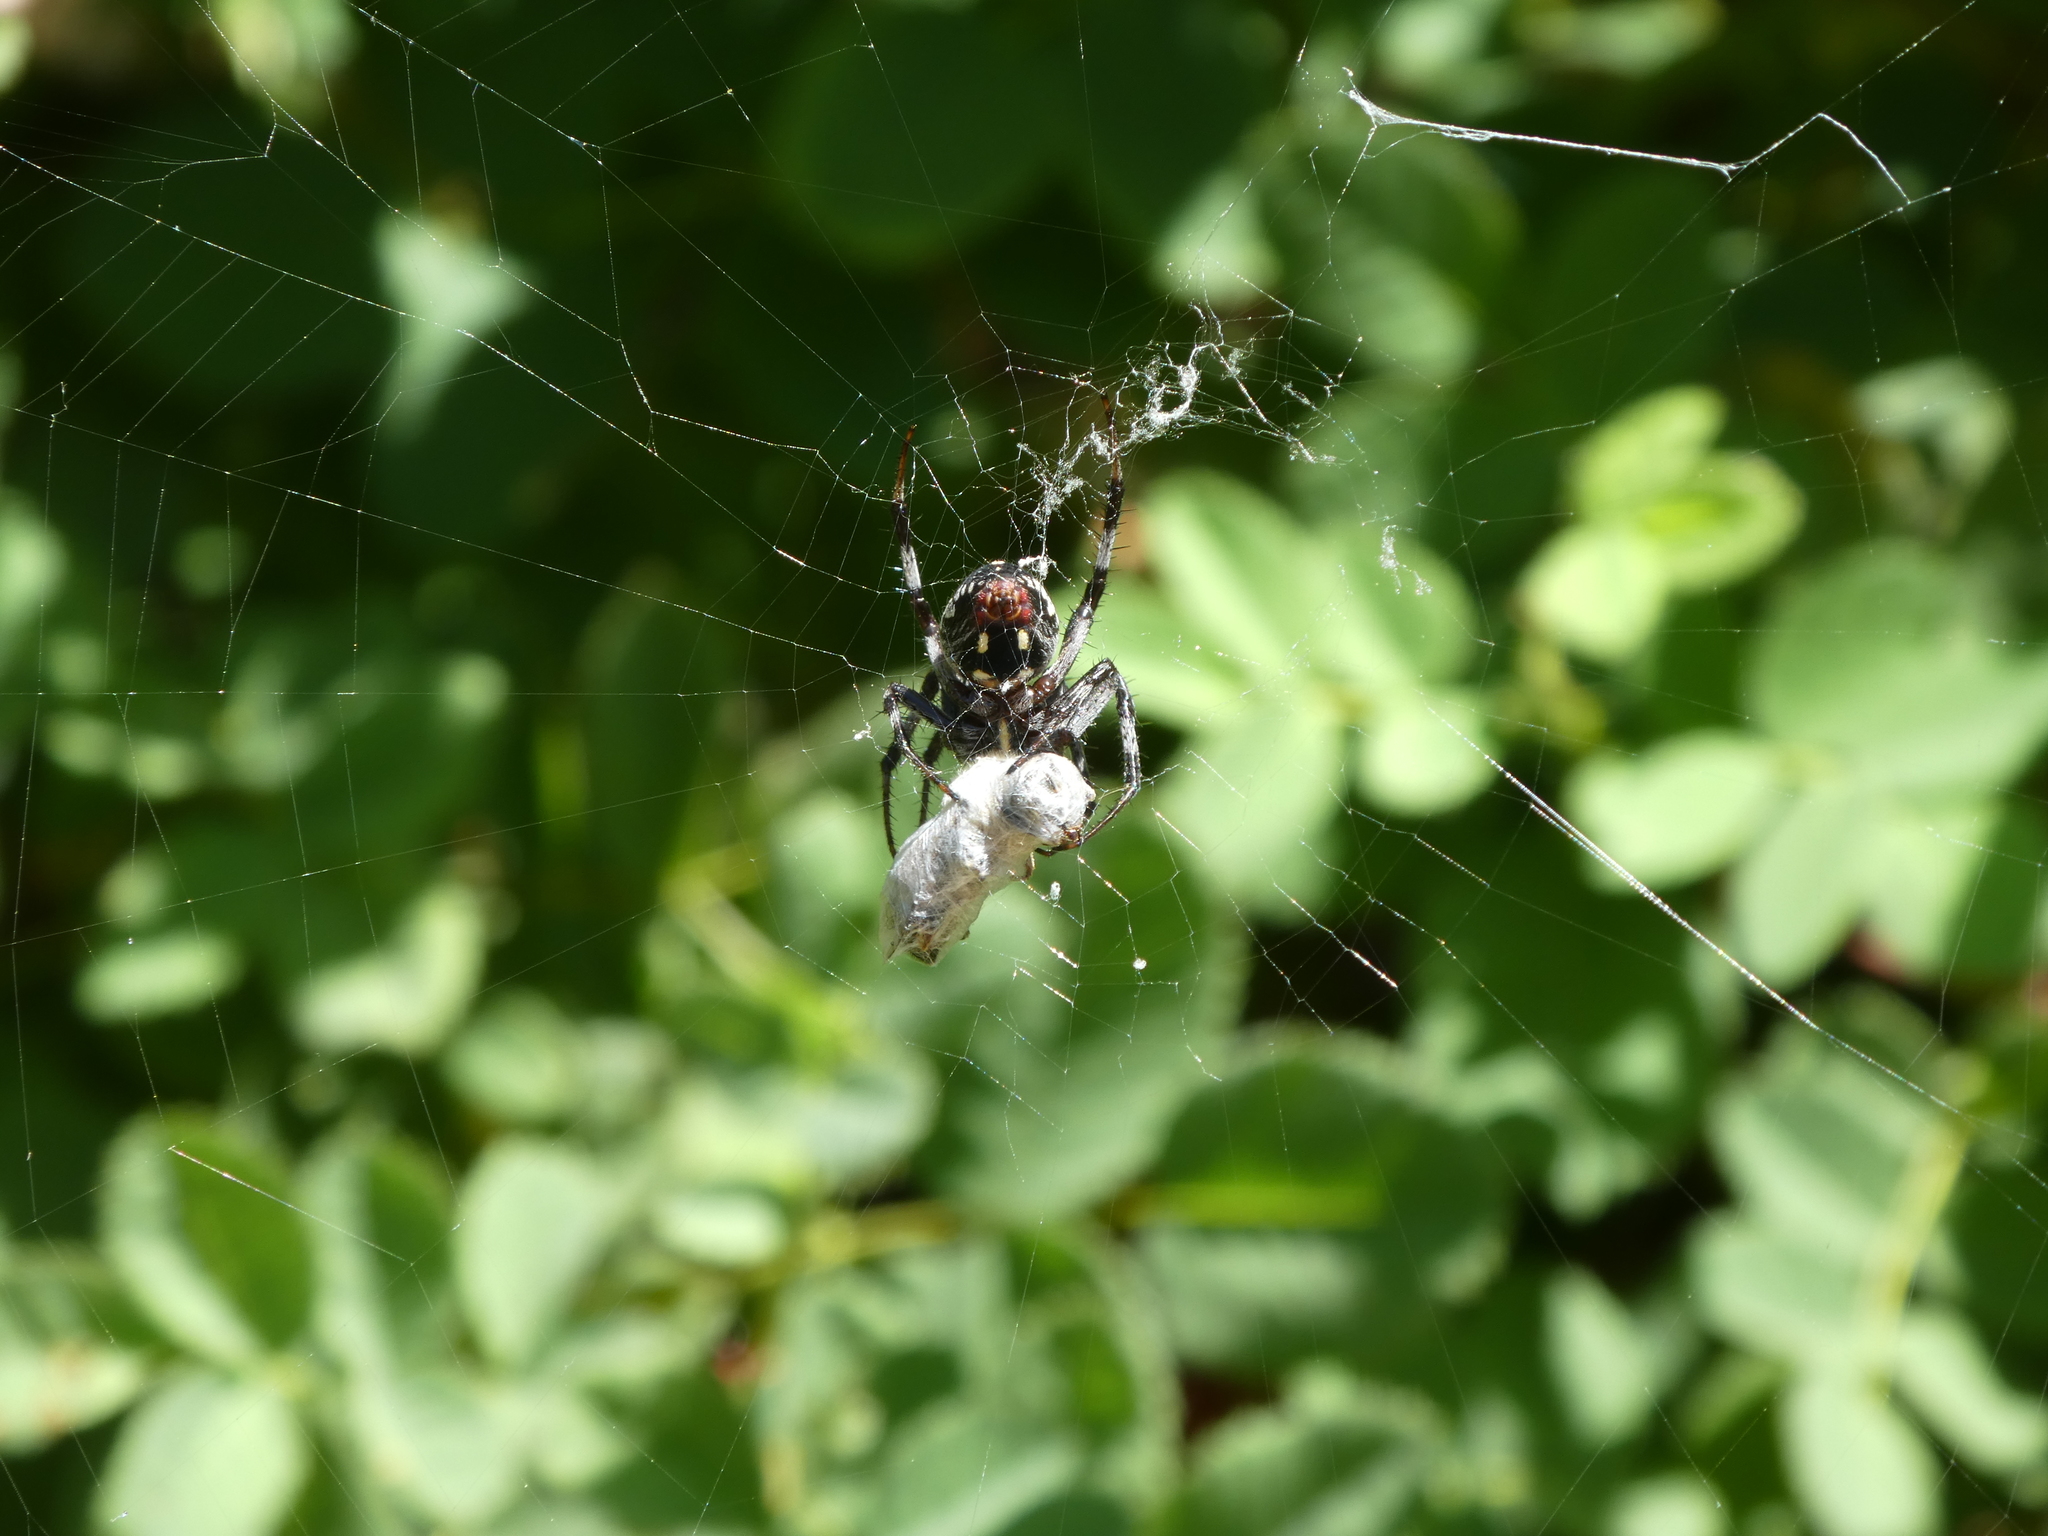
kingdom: Animalia
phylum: Arthropoda
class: Arachnida
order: Araneae
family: Araneidae
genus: Neoscona
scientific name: Neoscona oaxacensis
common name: Orb weavers
